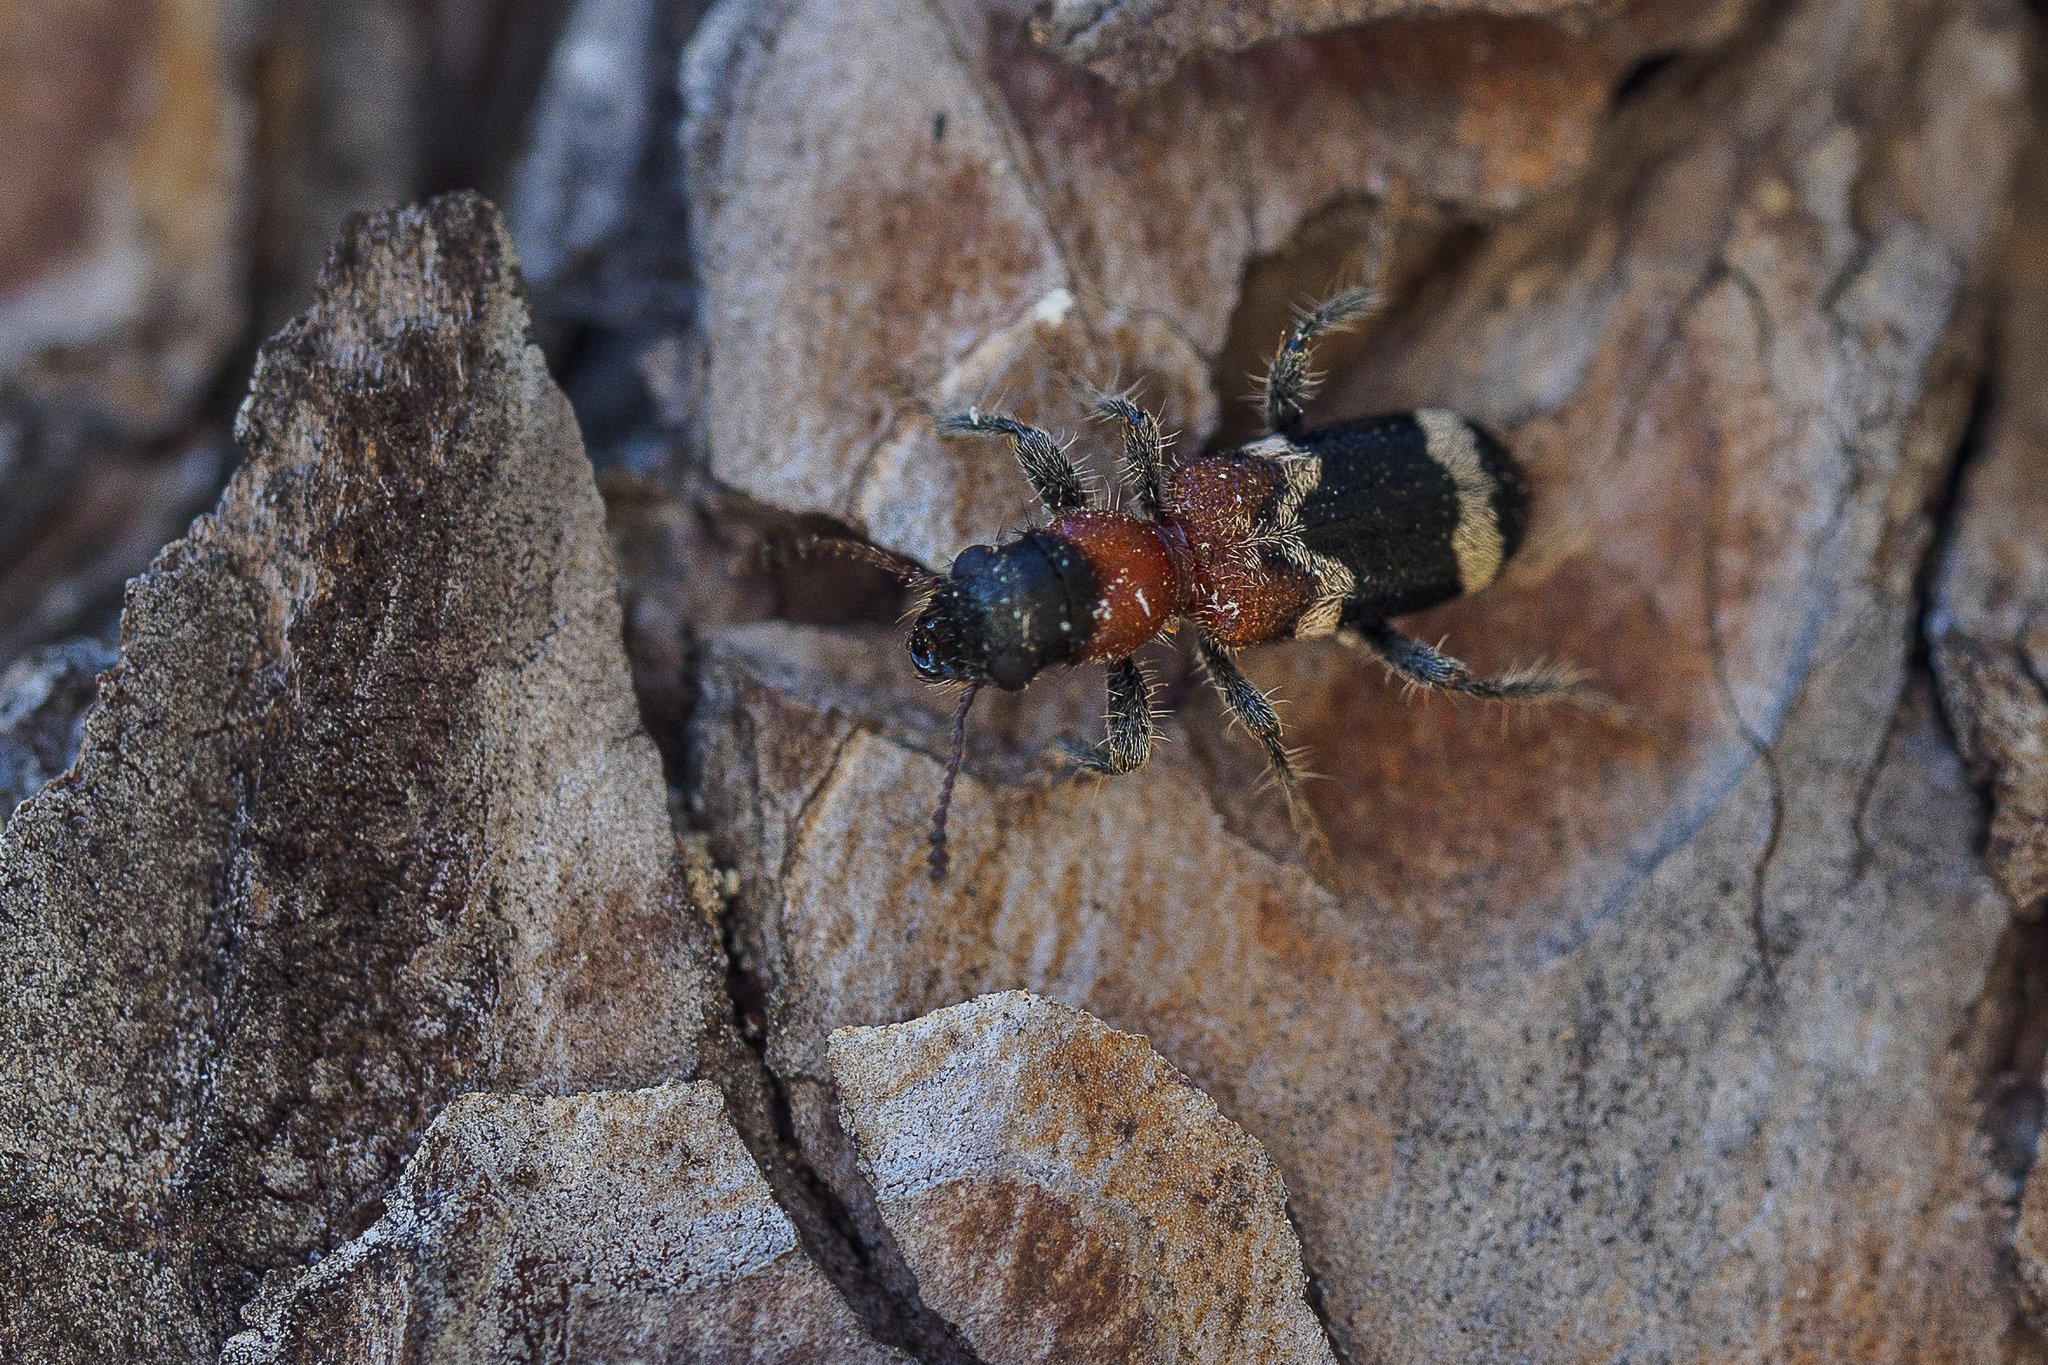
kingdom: Animalia
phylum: Arthropoda
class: Insecta
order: Coleoptera
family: Cleridae
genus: Thanasimus
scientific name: Thanasimus formicarius
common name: Ant beetle
